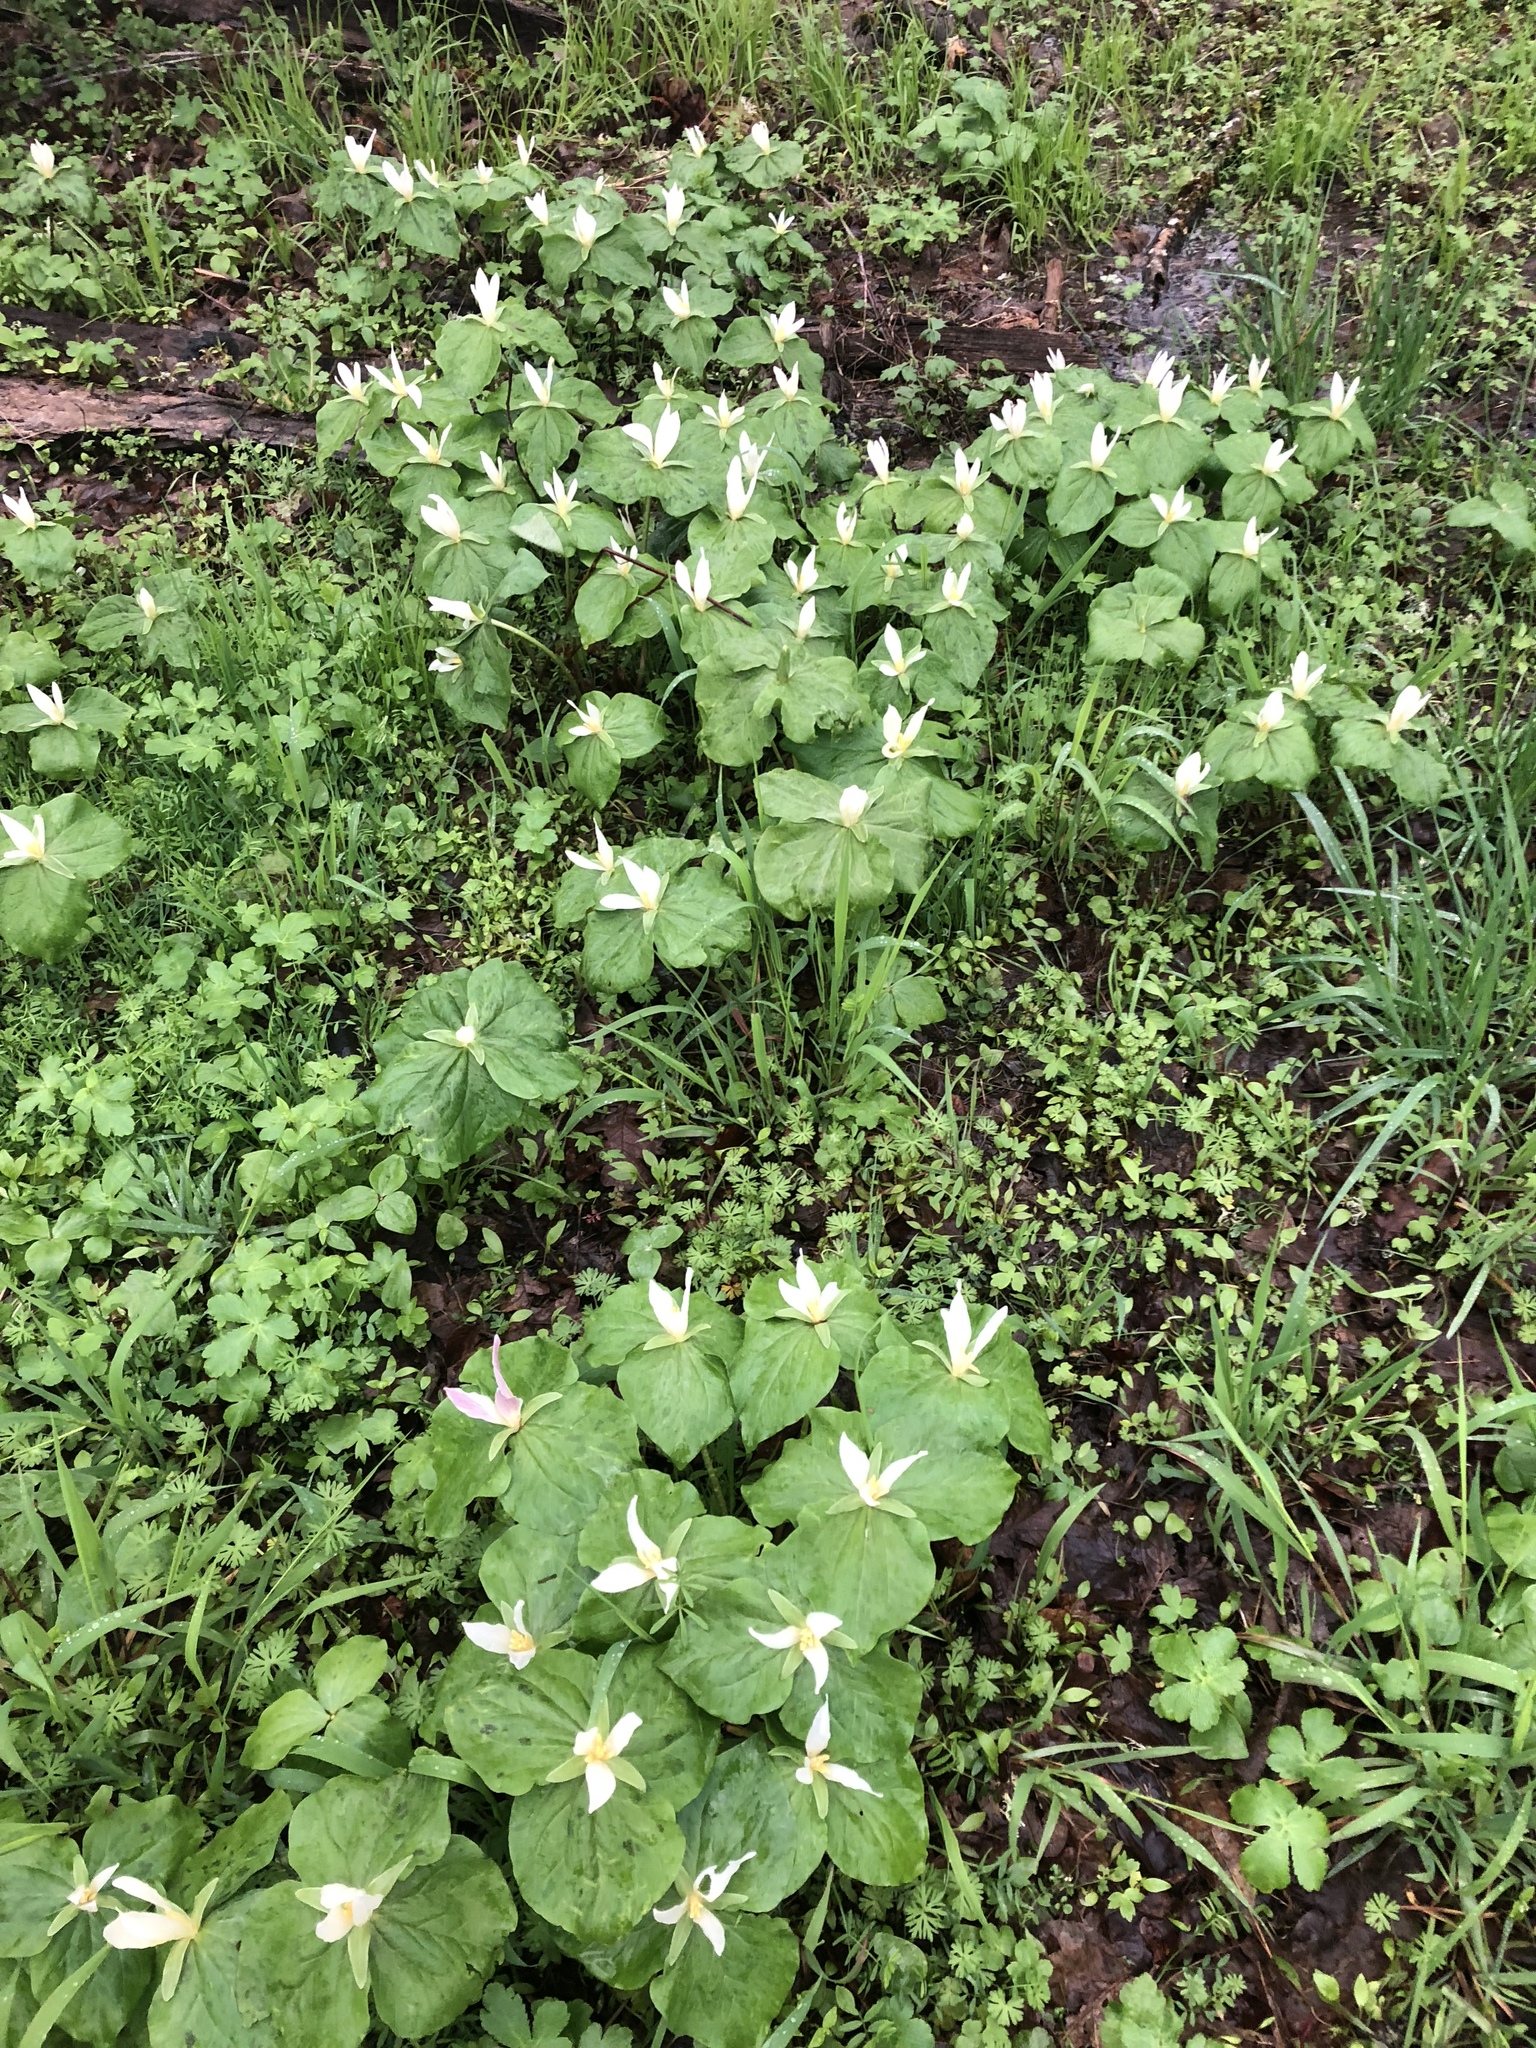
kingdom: Plantae
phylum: Tracheophyta
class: Liliopsida
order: Liliales
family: Melanthiaceae
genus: Trillium
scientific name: Trillium albidum
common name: Freeman's trillium
